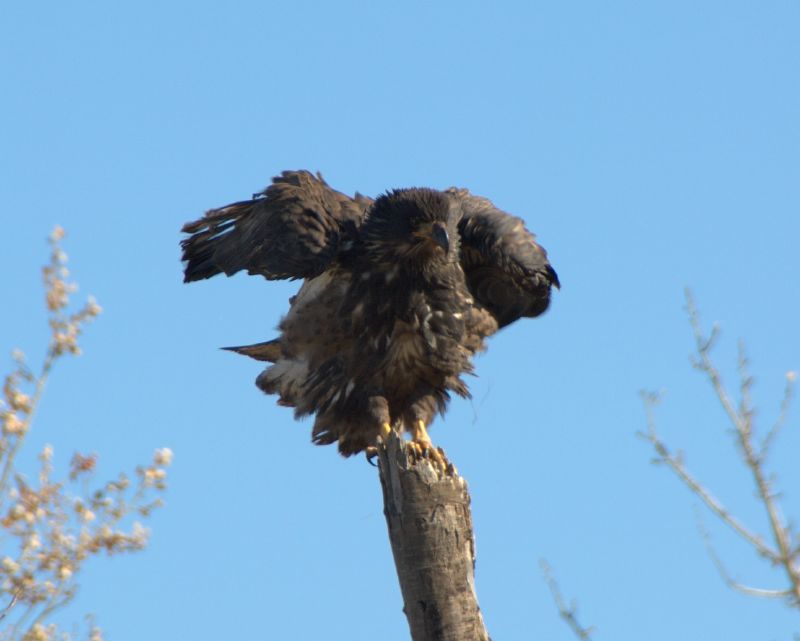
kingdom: Animalia
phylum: Chordata
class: Aves
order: Accipitriformes
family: Accipitridae
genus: Haliaeetus
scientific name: Haliaeetus leucocephalus
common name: Bald eagle
